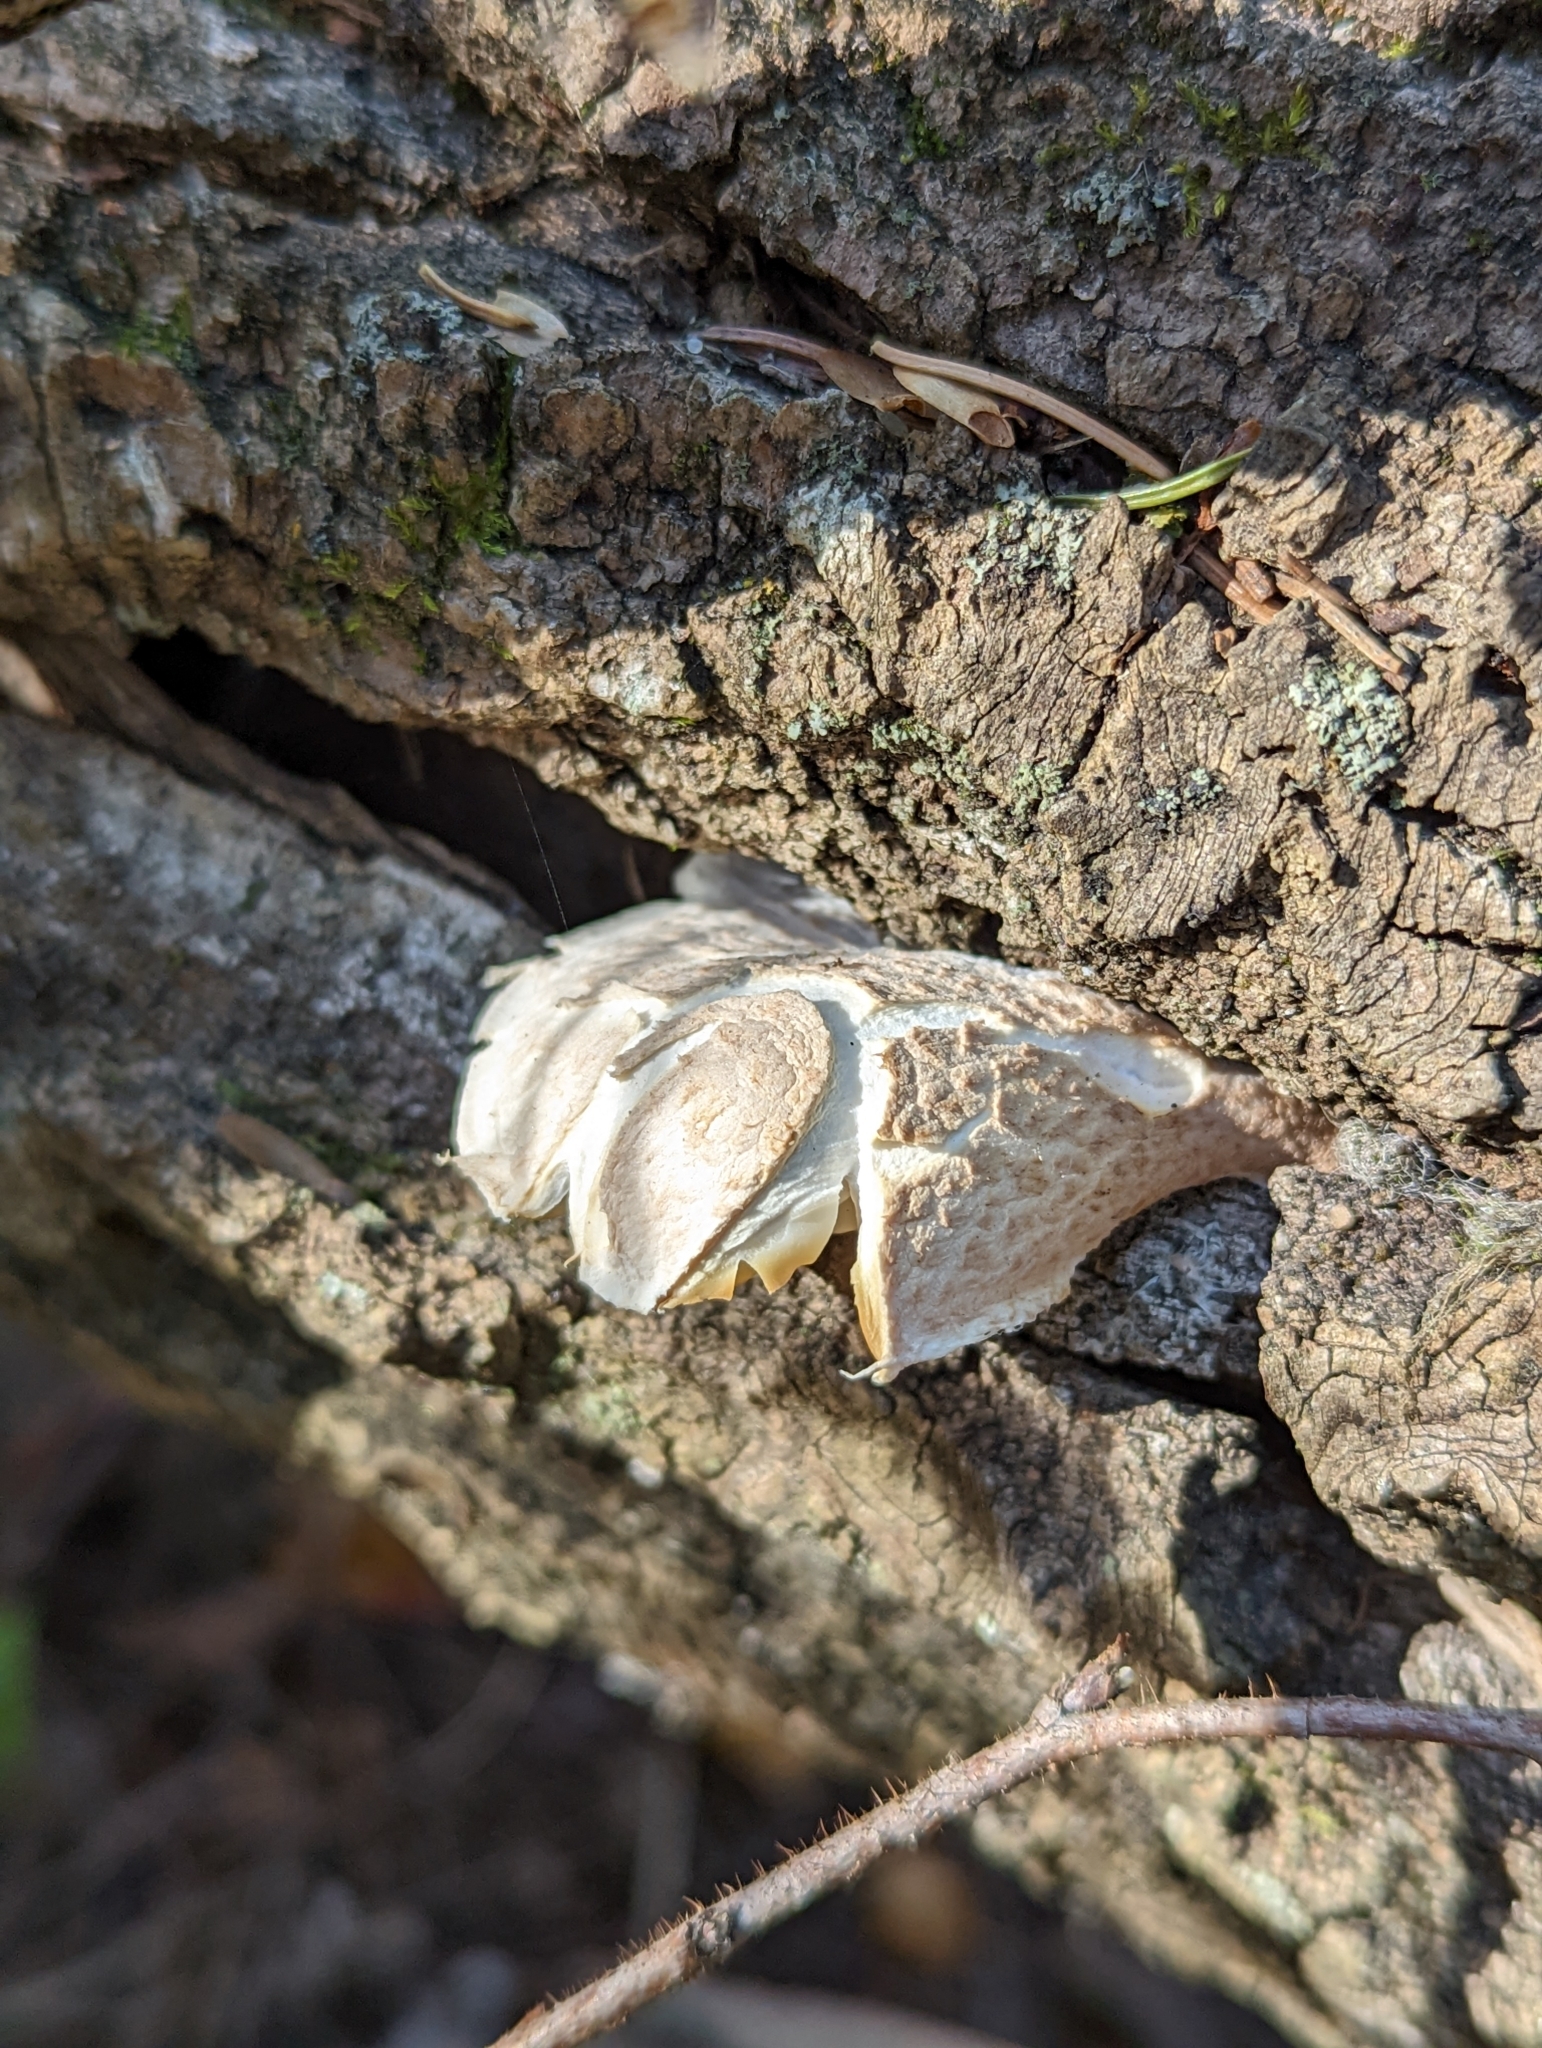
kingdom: Fungi
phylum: Basidiomycota
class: Agaricomycetes
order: Agaricales
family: Pleurotaceae
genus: Pleurotus
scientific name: Pleurotus dryinus
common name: Veiled oyster
